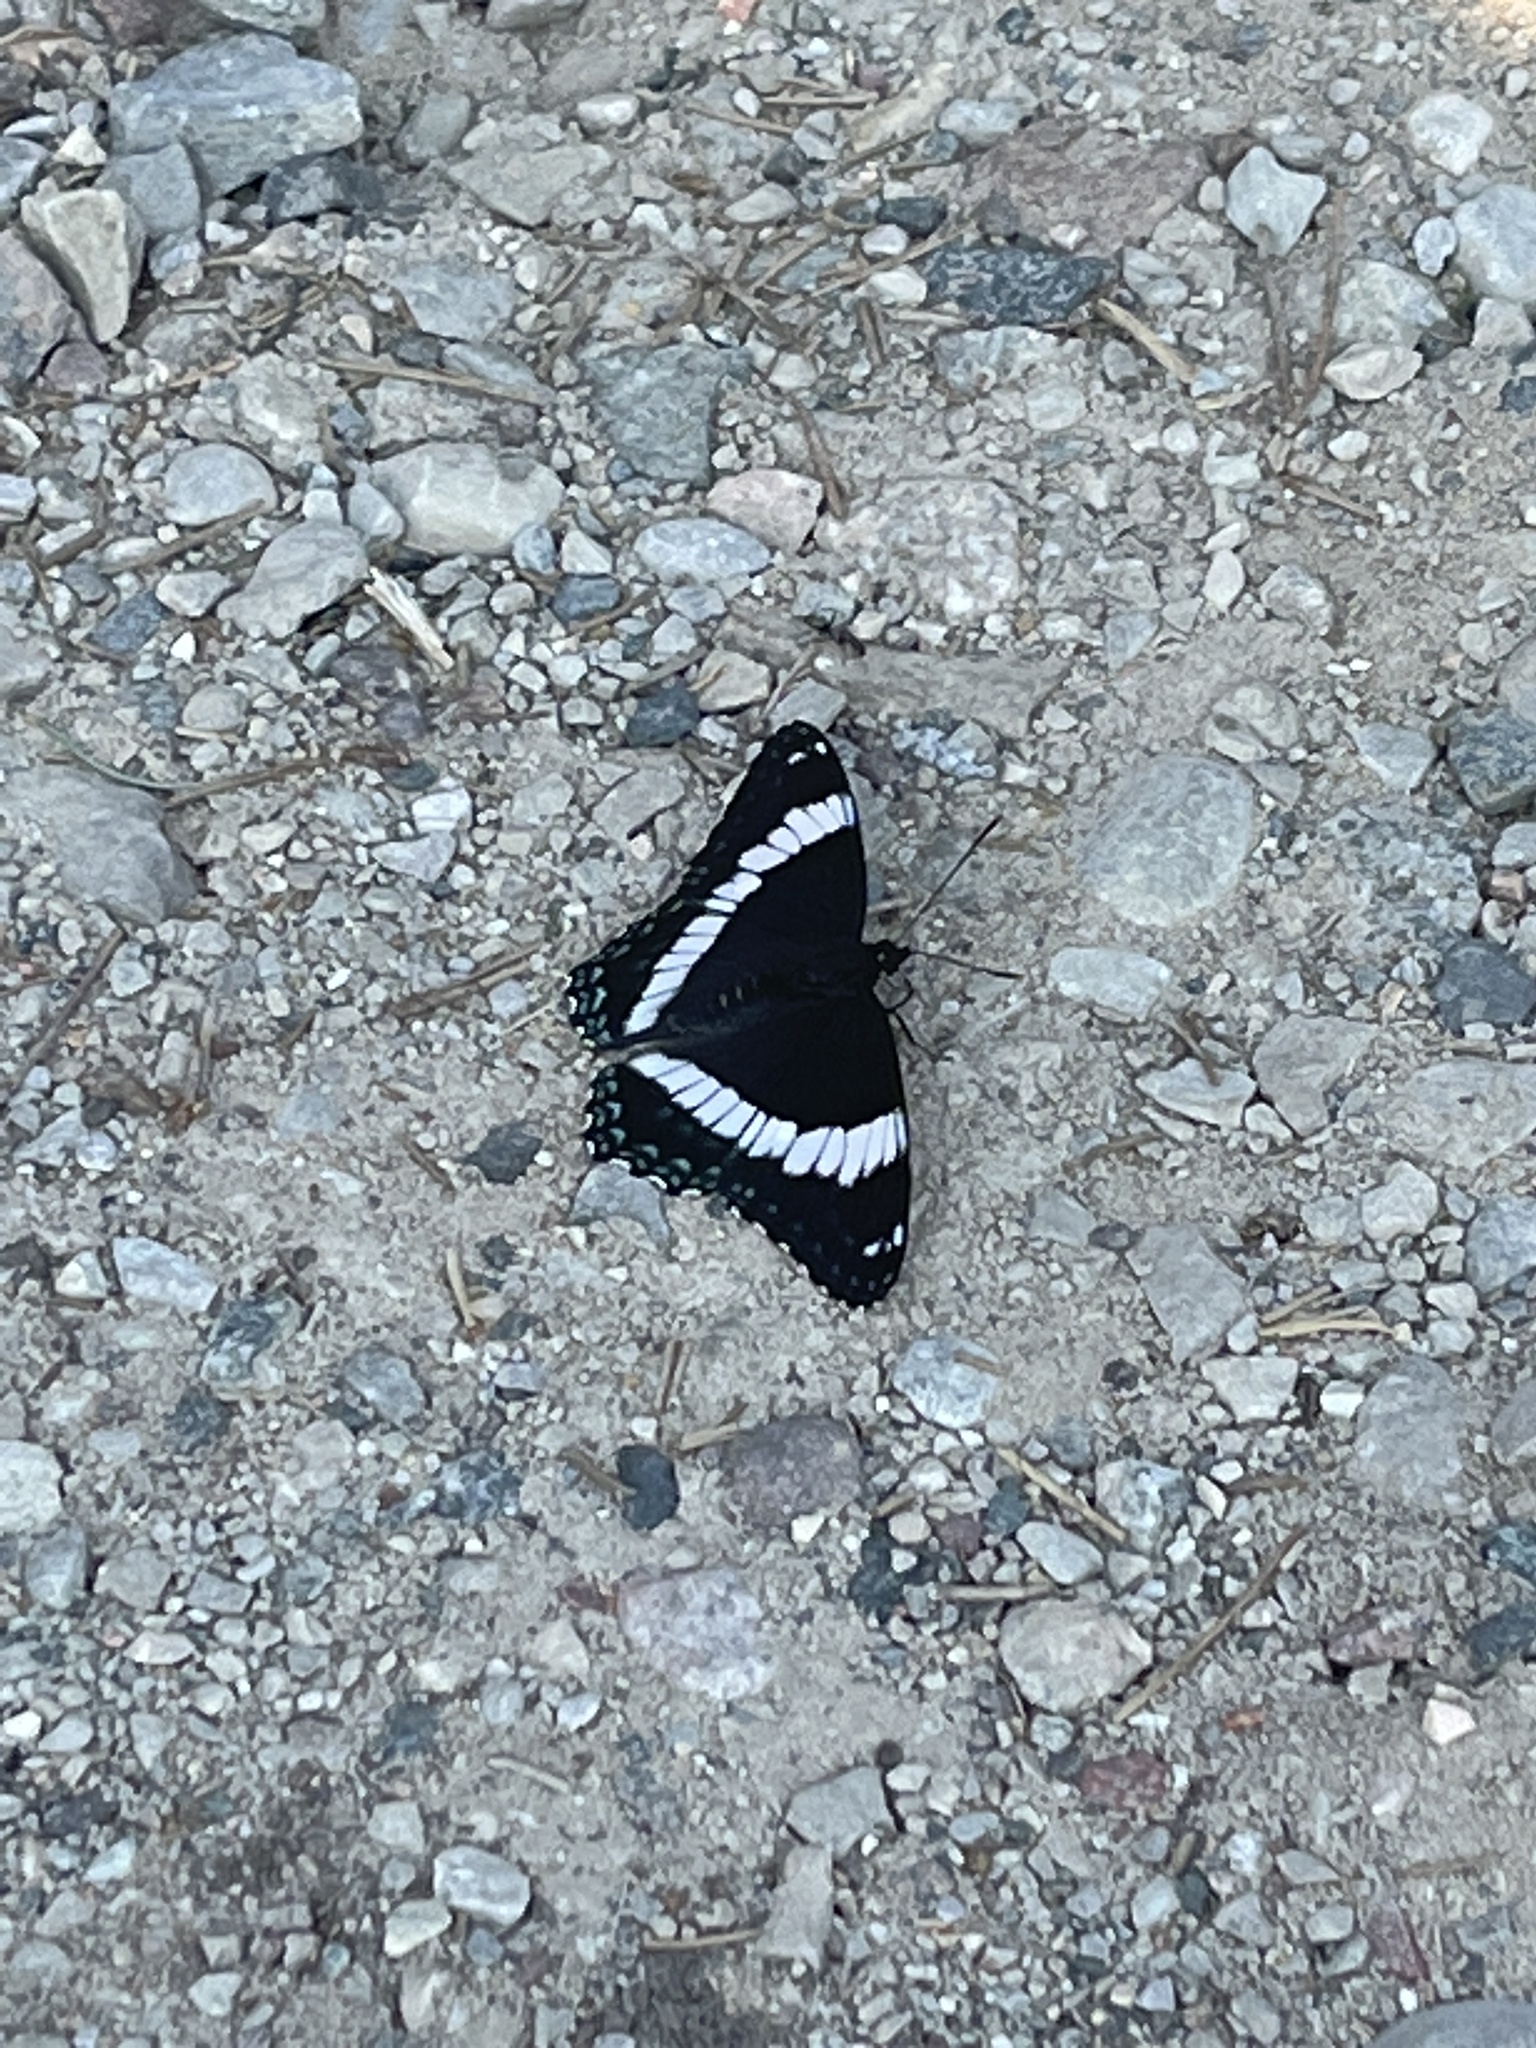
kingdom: Animalia
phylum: Arthropoda
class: Insecta
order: Lepidoptera
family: Nymphalidae
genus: Limenitis
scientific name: Limenitis arthemis
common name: Red-spotted admiral
